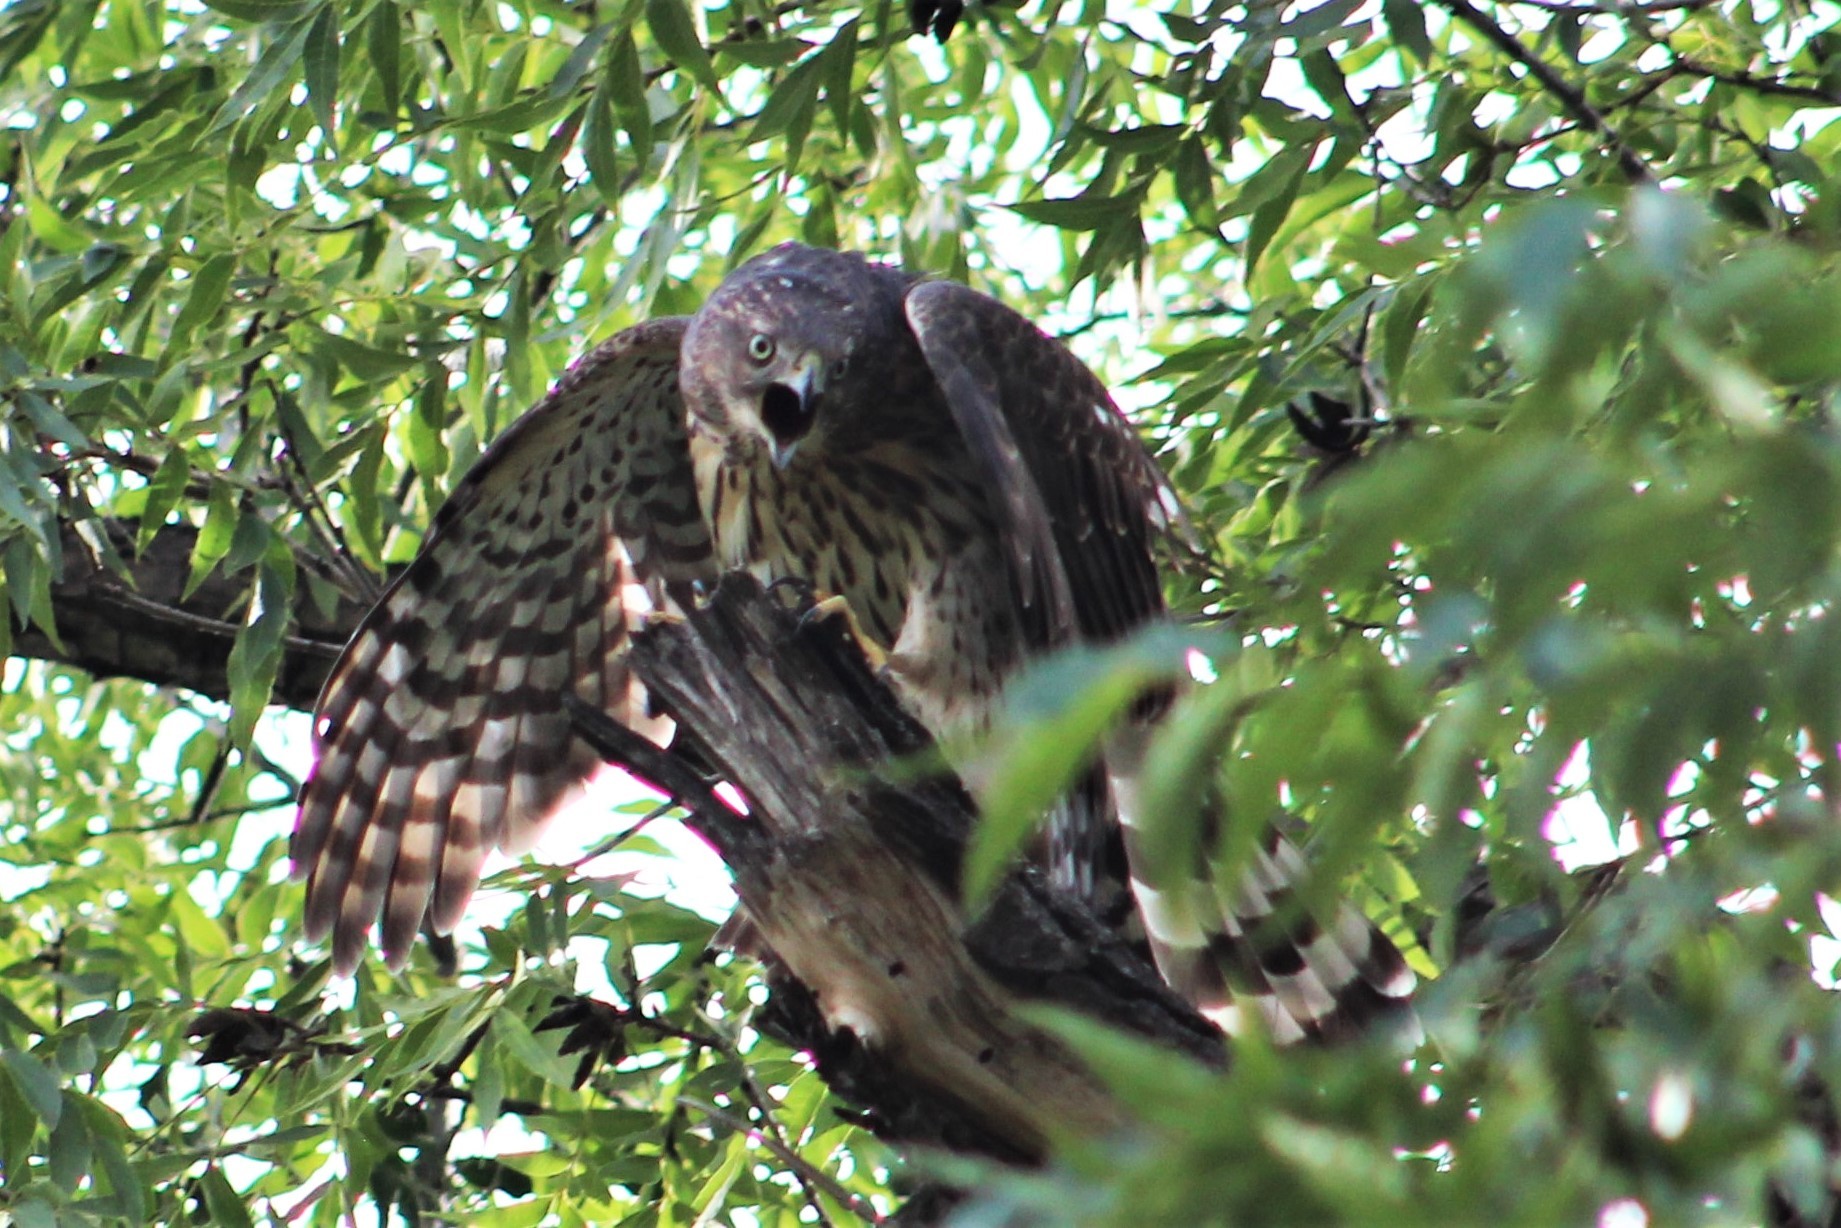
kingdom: Animalia
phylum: Chordata
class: Aves
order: Accipitriformes
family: Accipitridae
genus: Accipiter
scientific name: Accipiter cooperii
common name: Cooper's hawk
